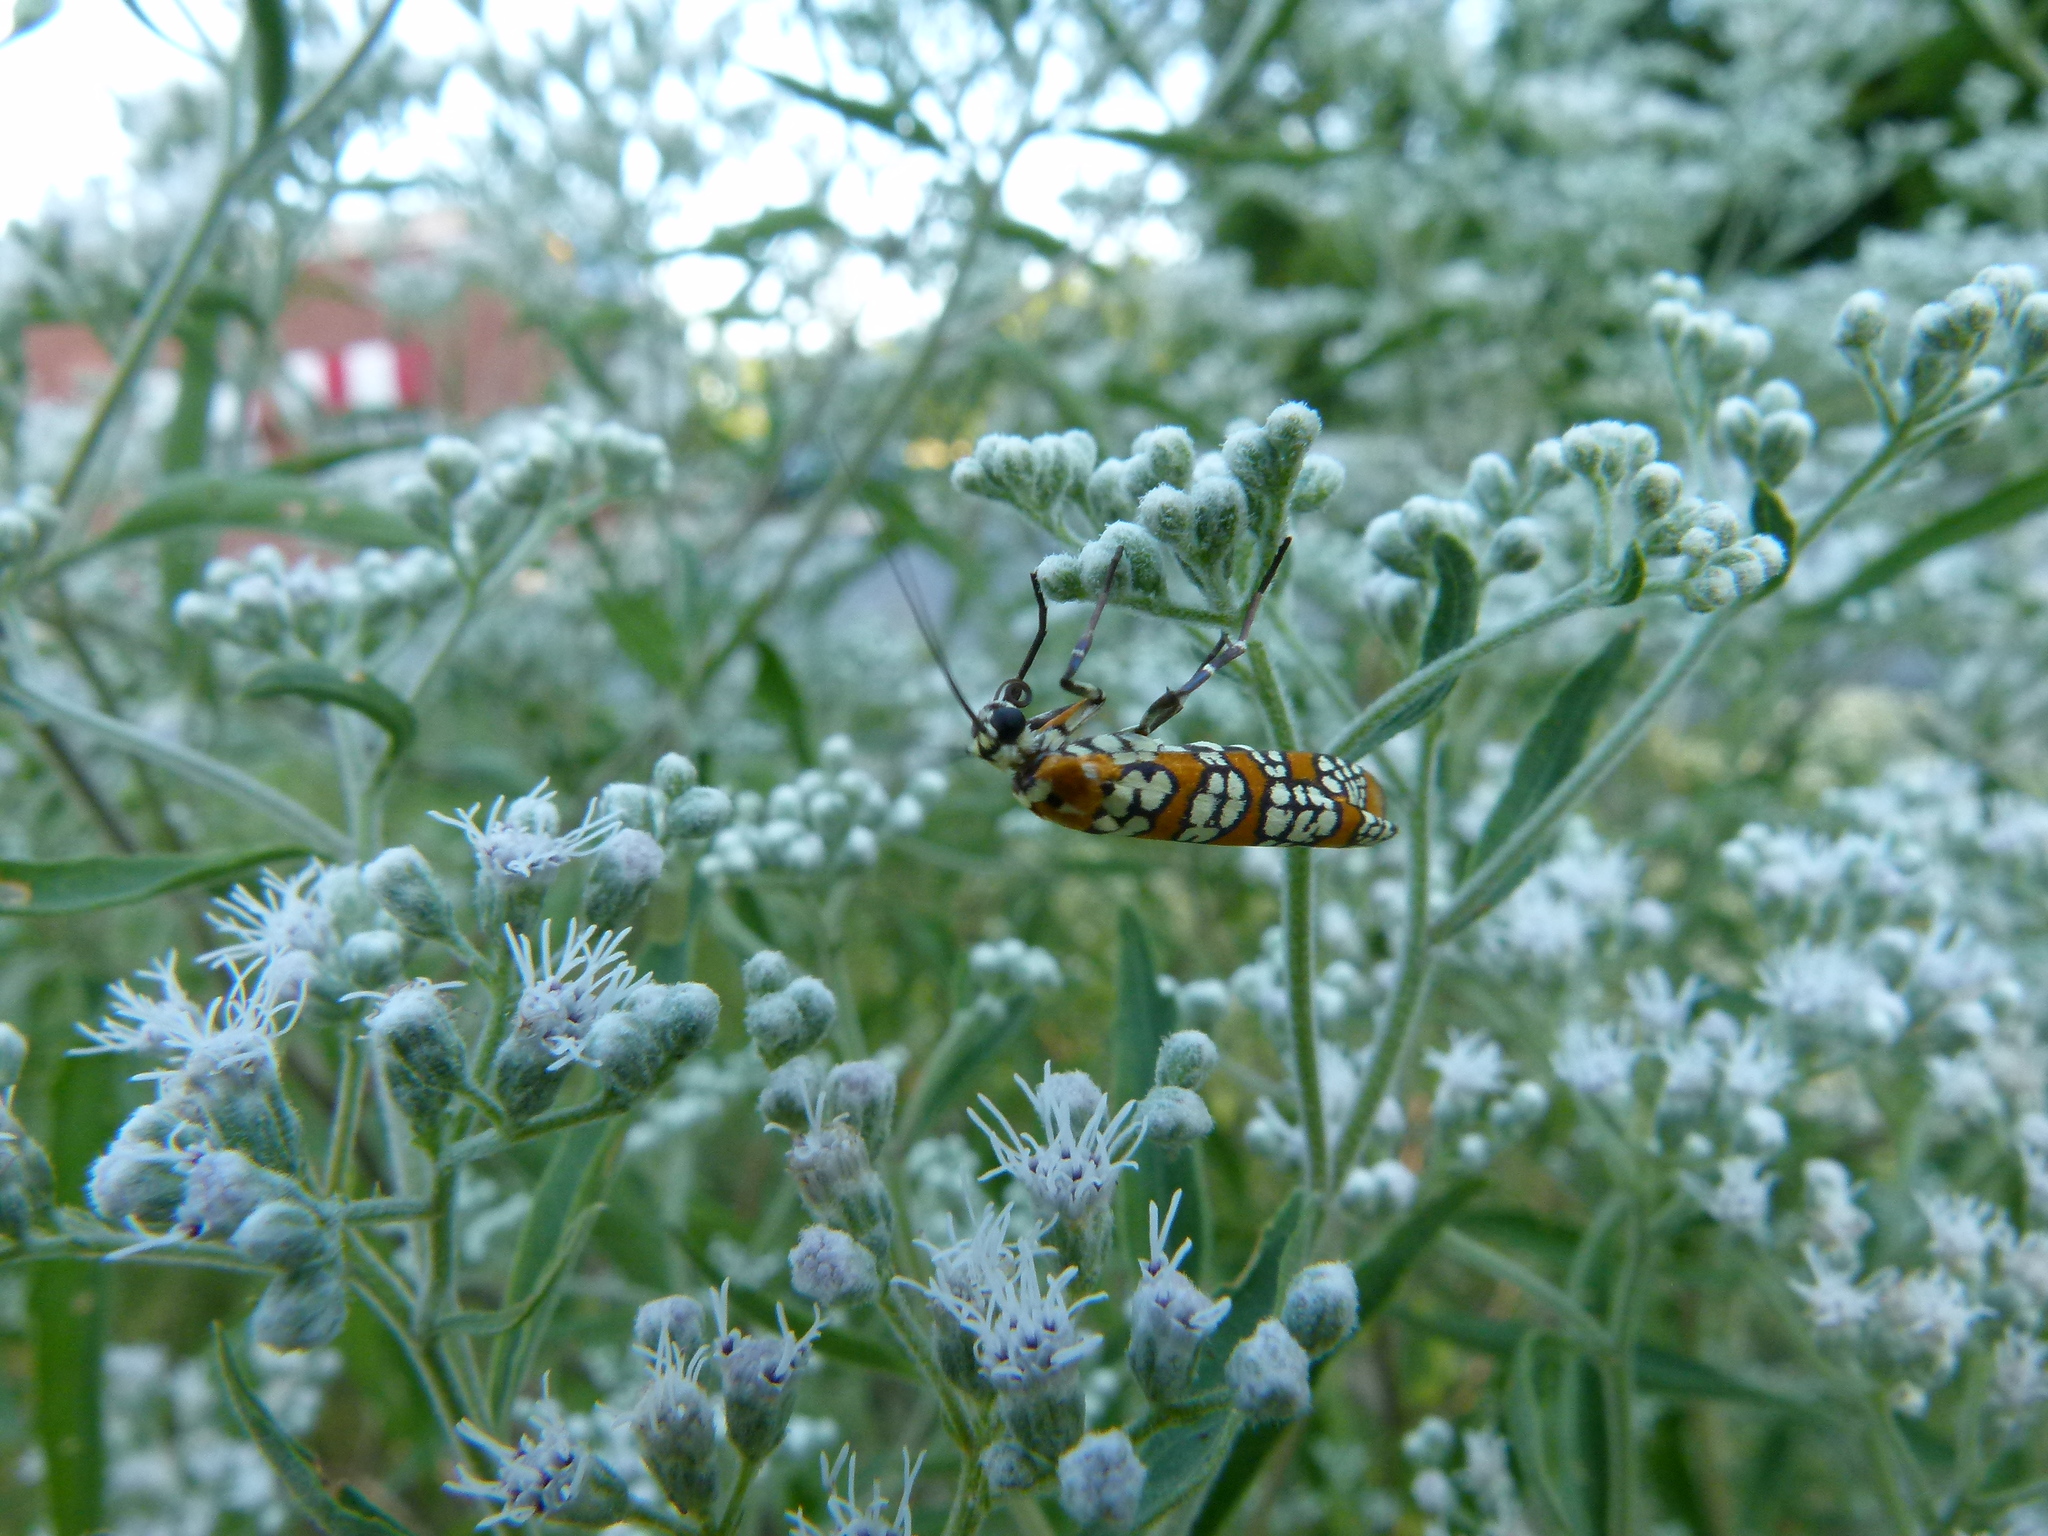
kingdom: Animalia
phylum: Arthropoda
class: Insecta
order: Lepidoptera
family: Attevidae
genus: Atteva
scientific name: Atteva punctella
